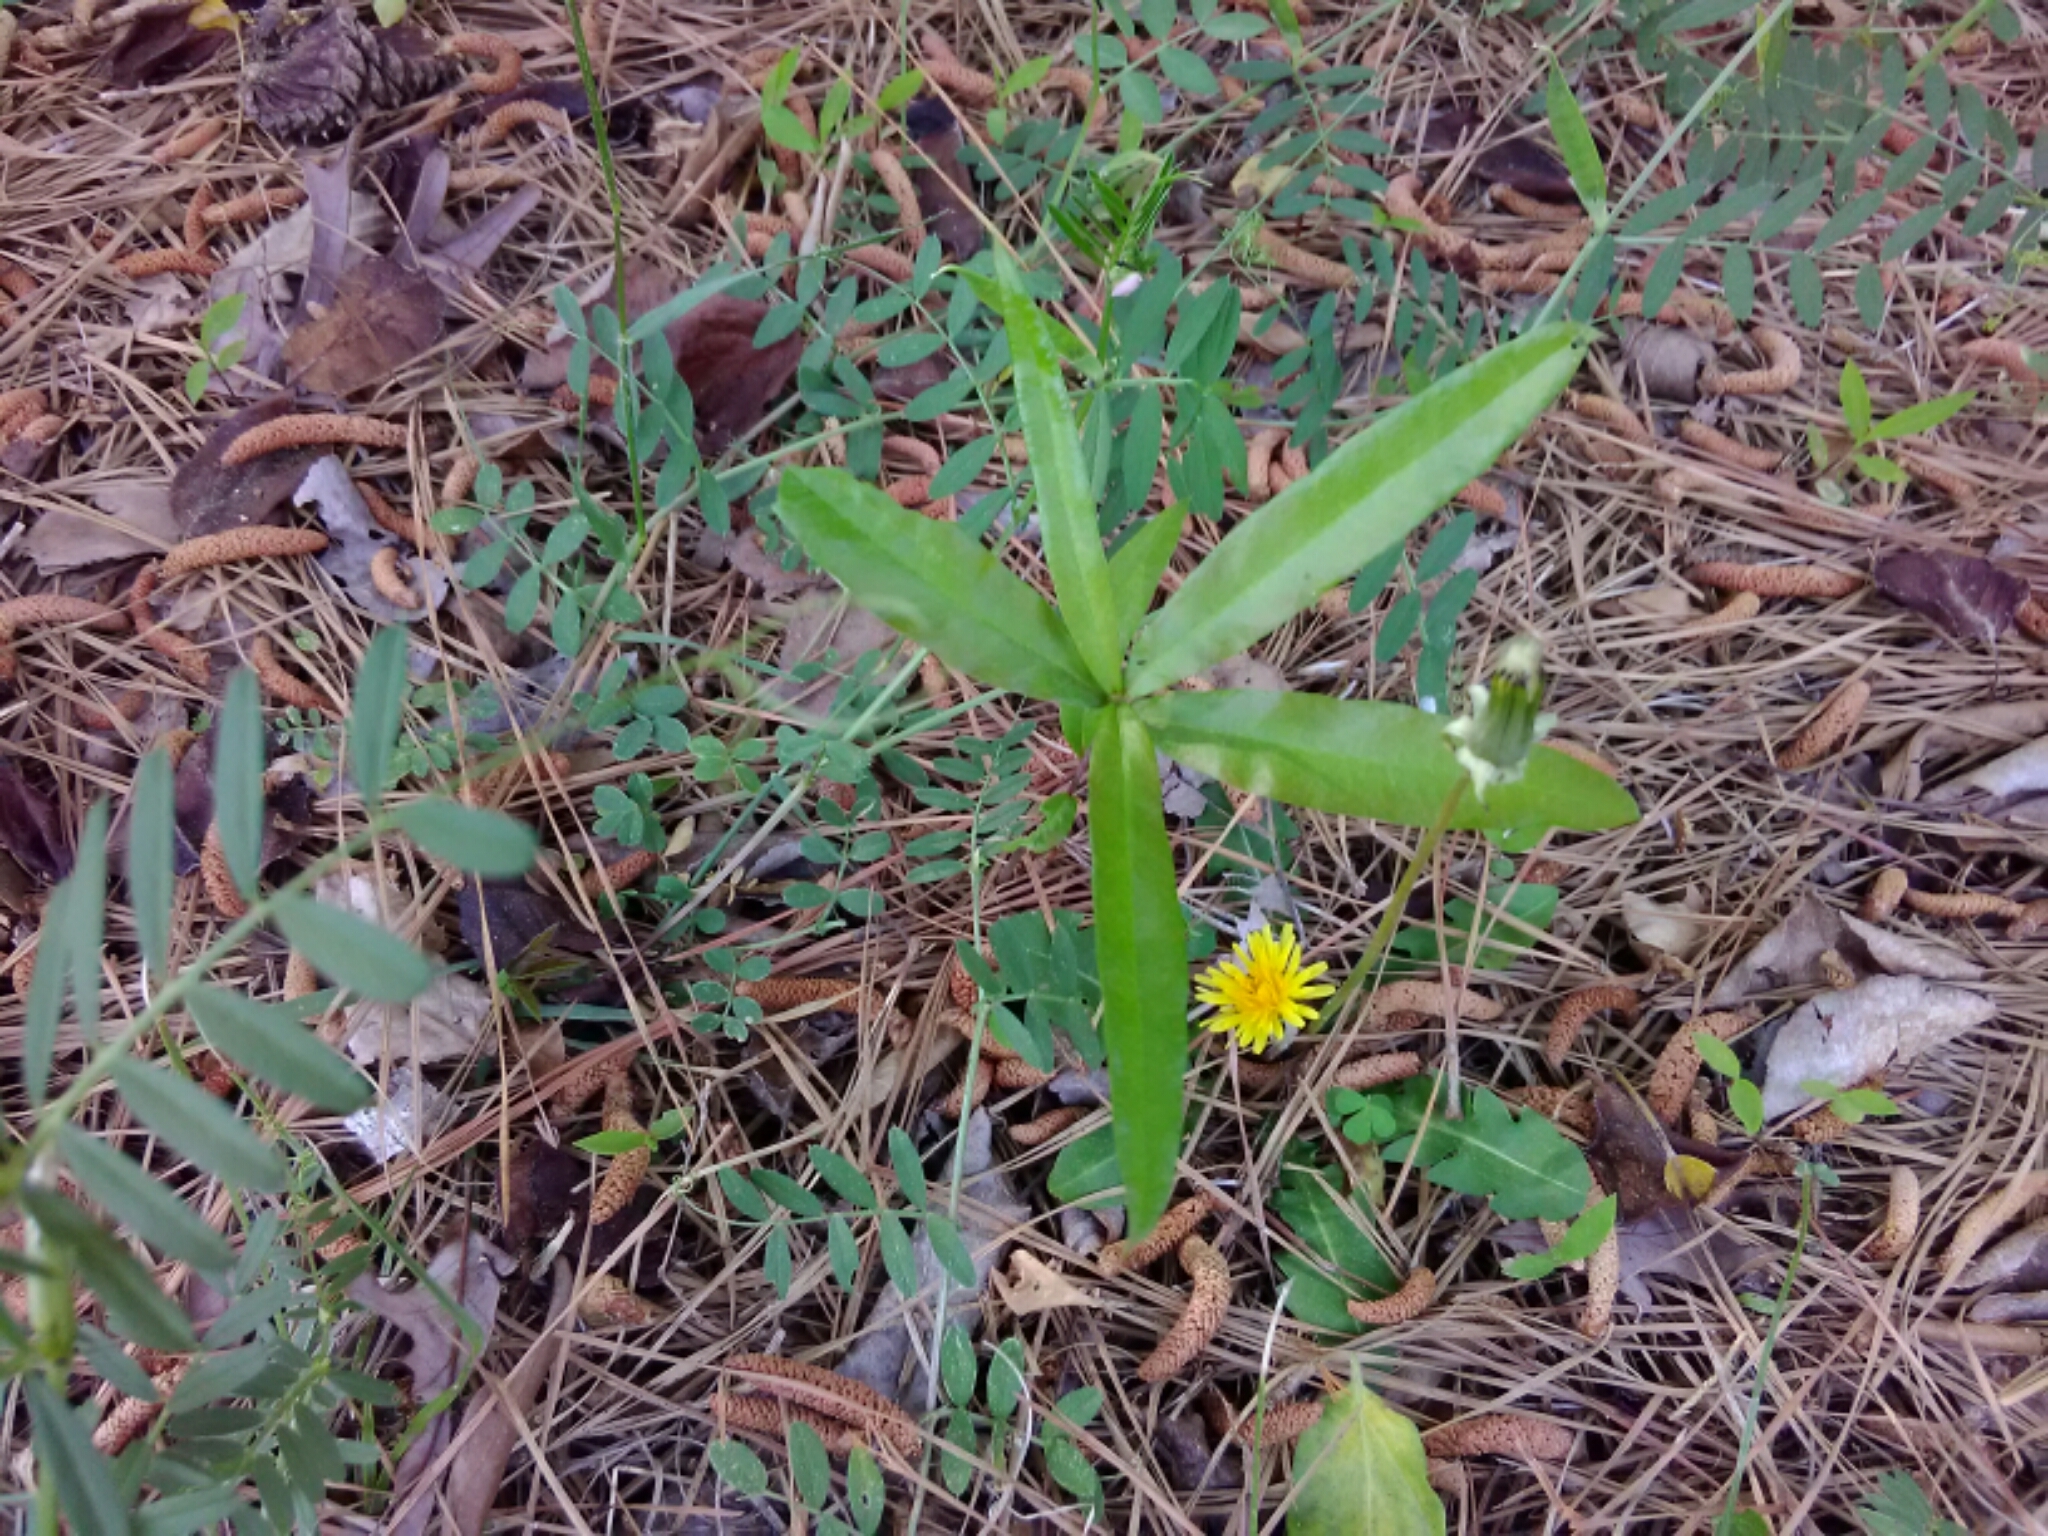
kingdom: Plantae
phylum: Tracheophyta
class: Magnoliopsida
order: Fagales
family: Fagaceae
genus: Quercus
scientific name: Quercus phellos
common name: Willow oak
